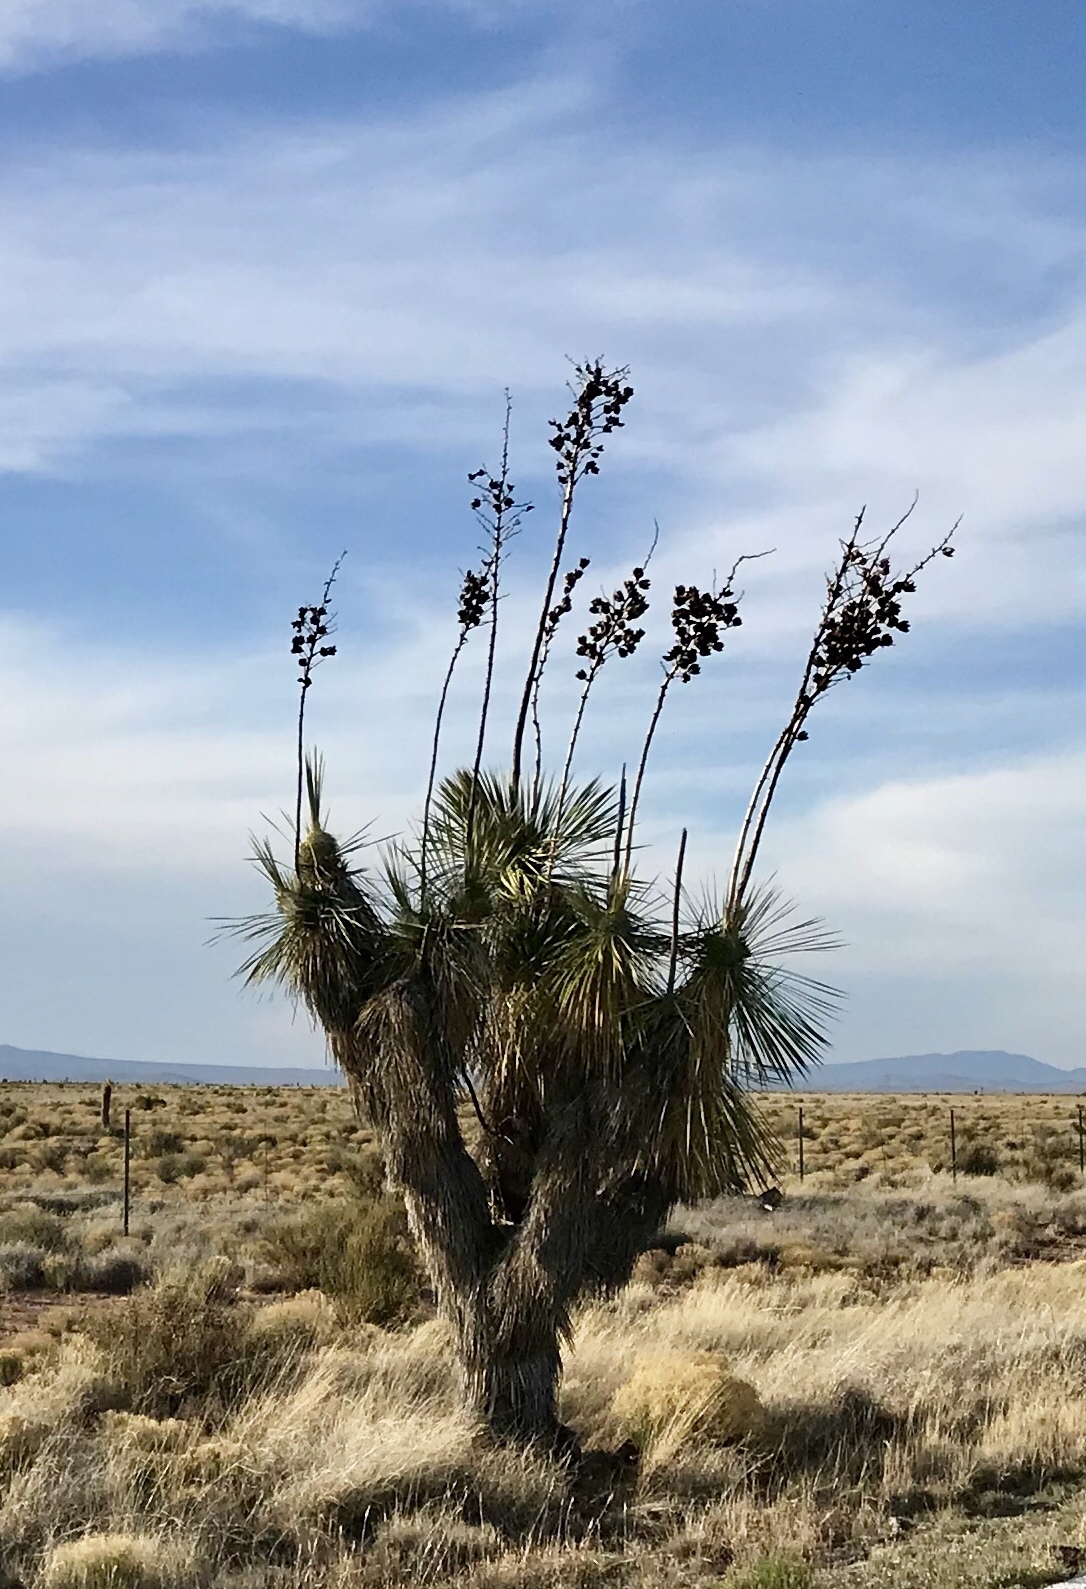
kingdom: Plantae
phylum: Tracheophyta
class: Liliopsida
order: Asparagales
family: Asparagaceae
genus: Yucca
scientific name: Yucca elata
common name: Palmella
